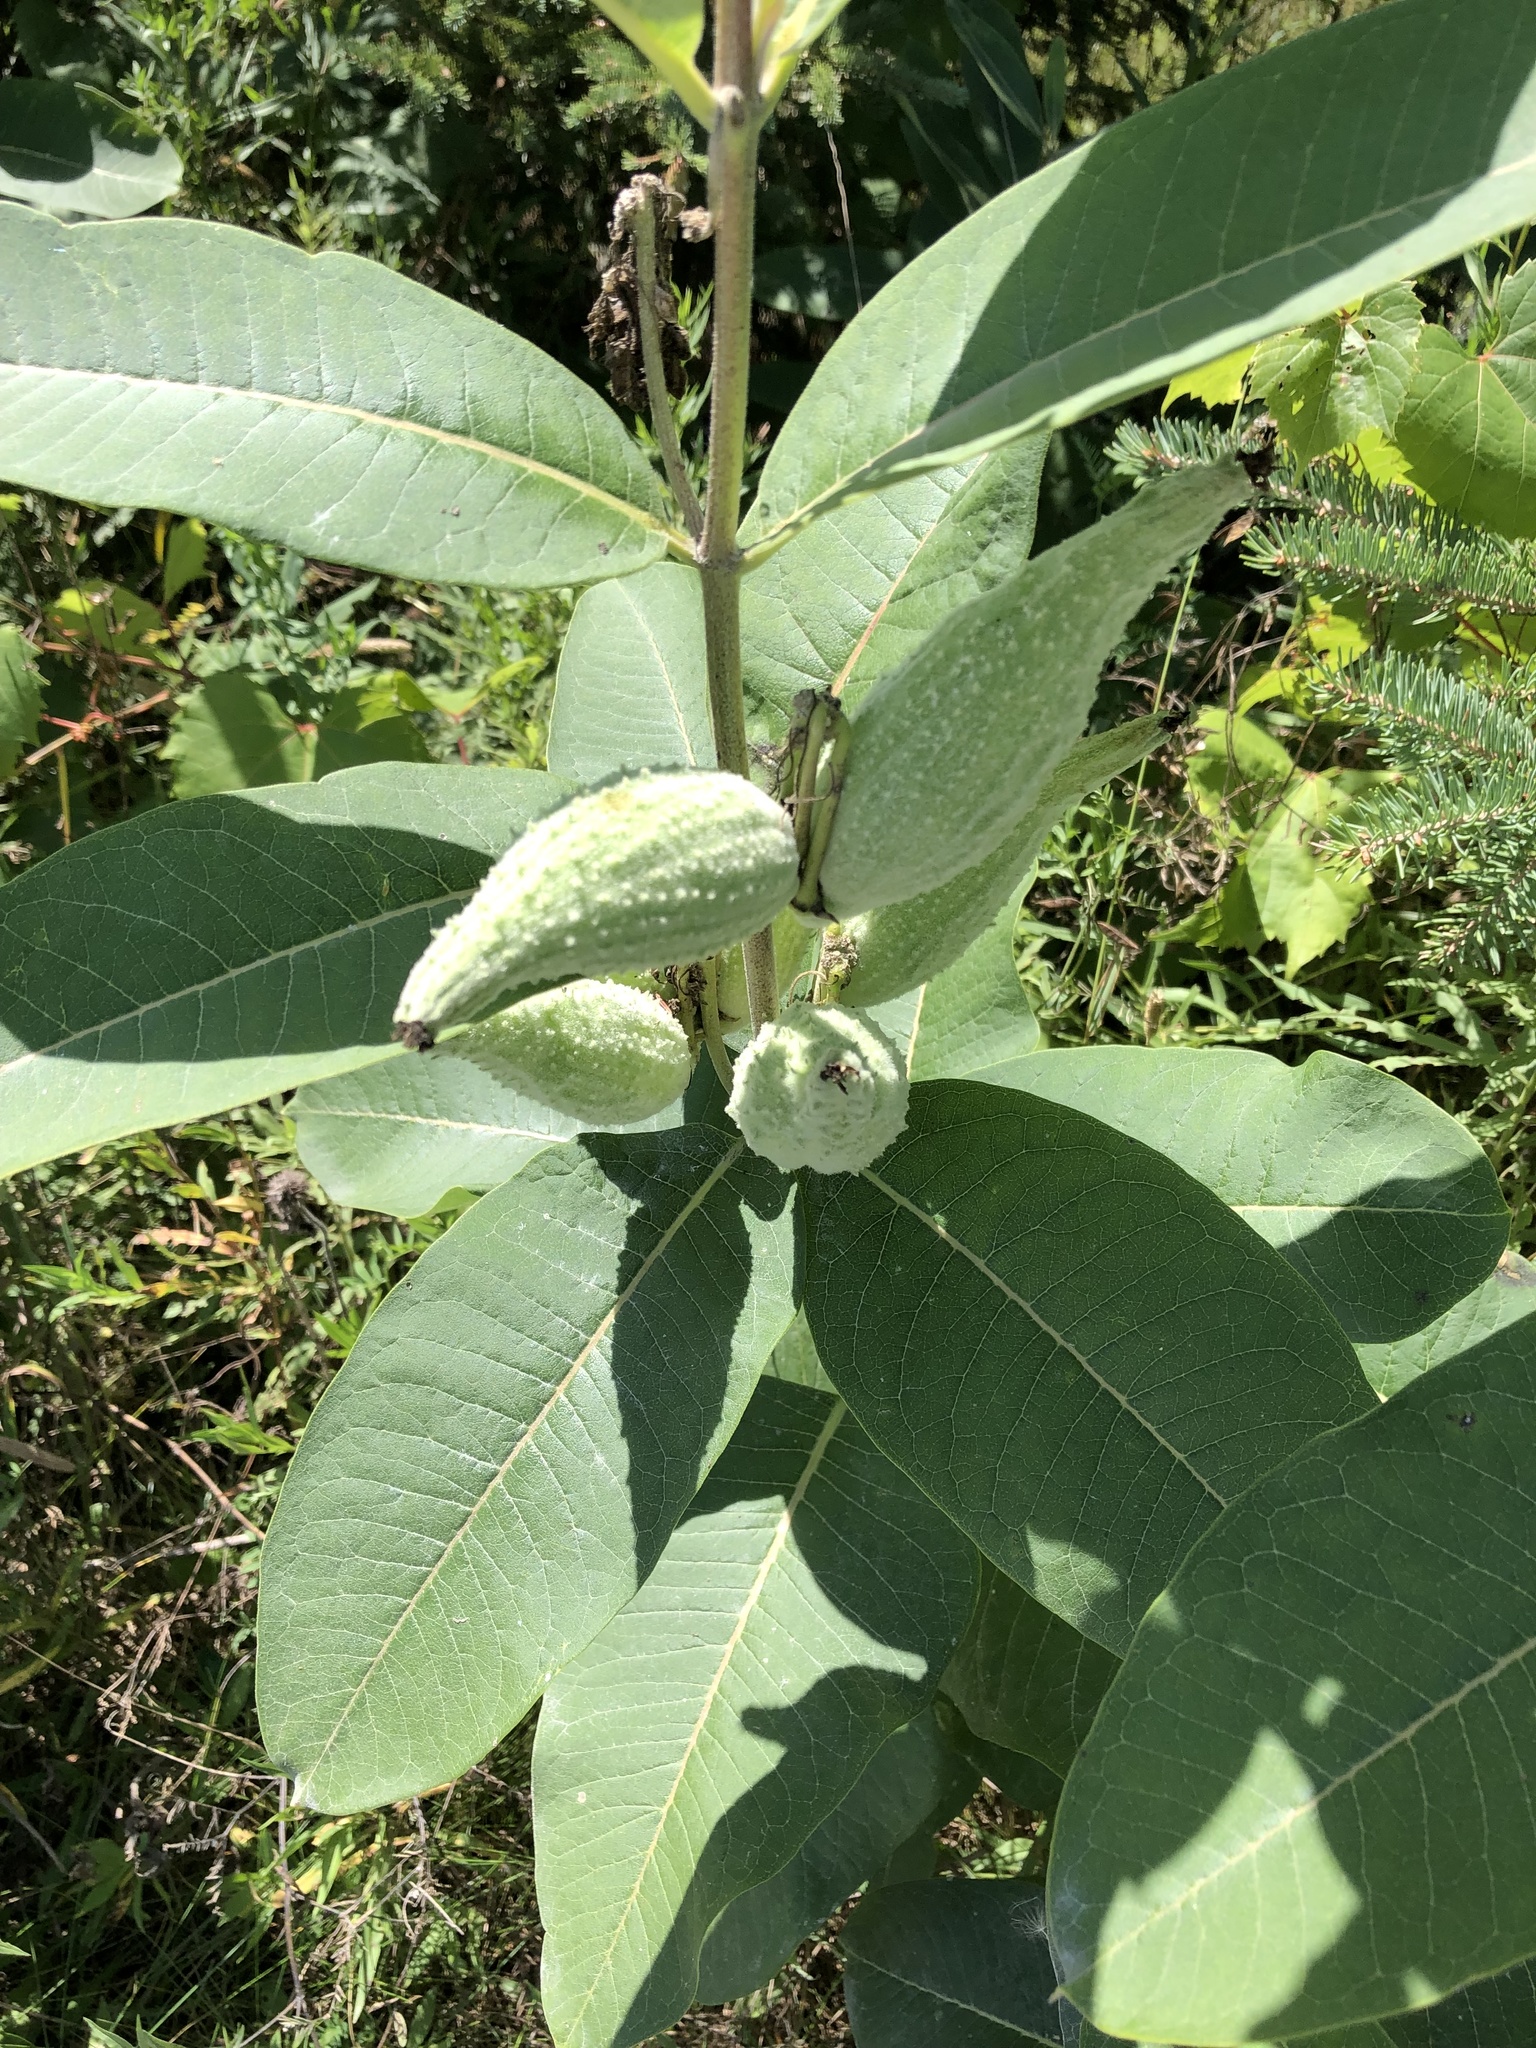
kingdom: Plantae
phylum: Tracheophyta
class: Magnoliopsida
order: Gentianales
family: Apocynaceae
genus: Asclepias
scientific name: Asclepias syriaca
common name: Common milkweed
